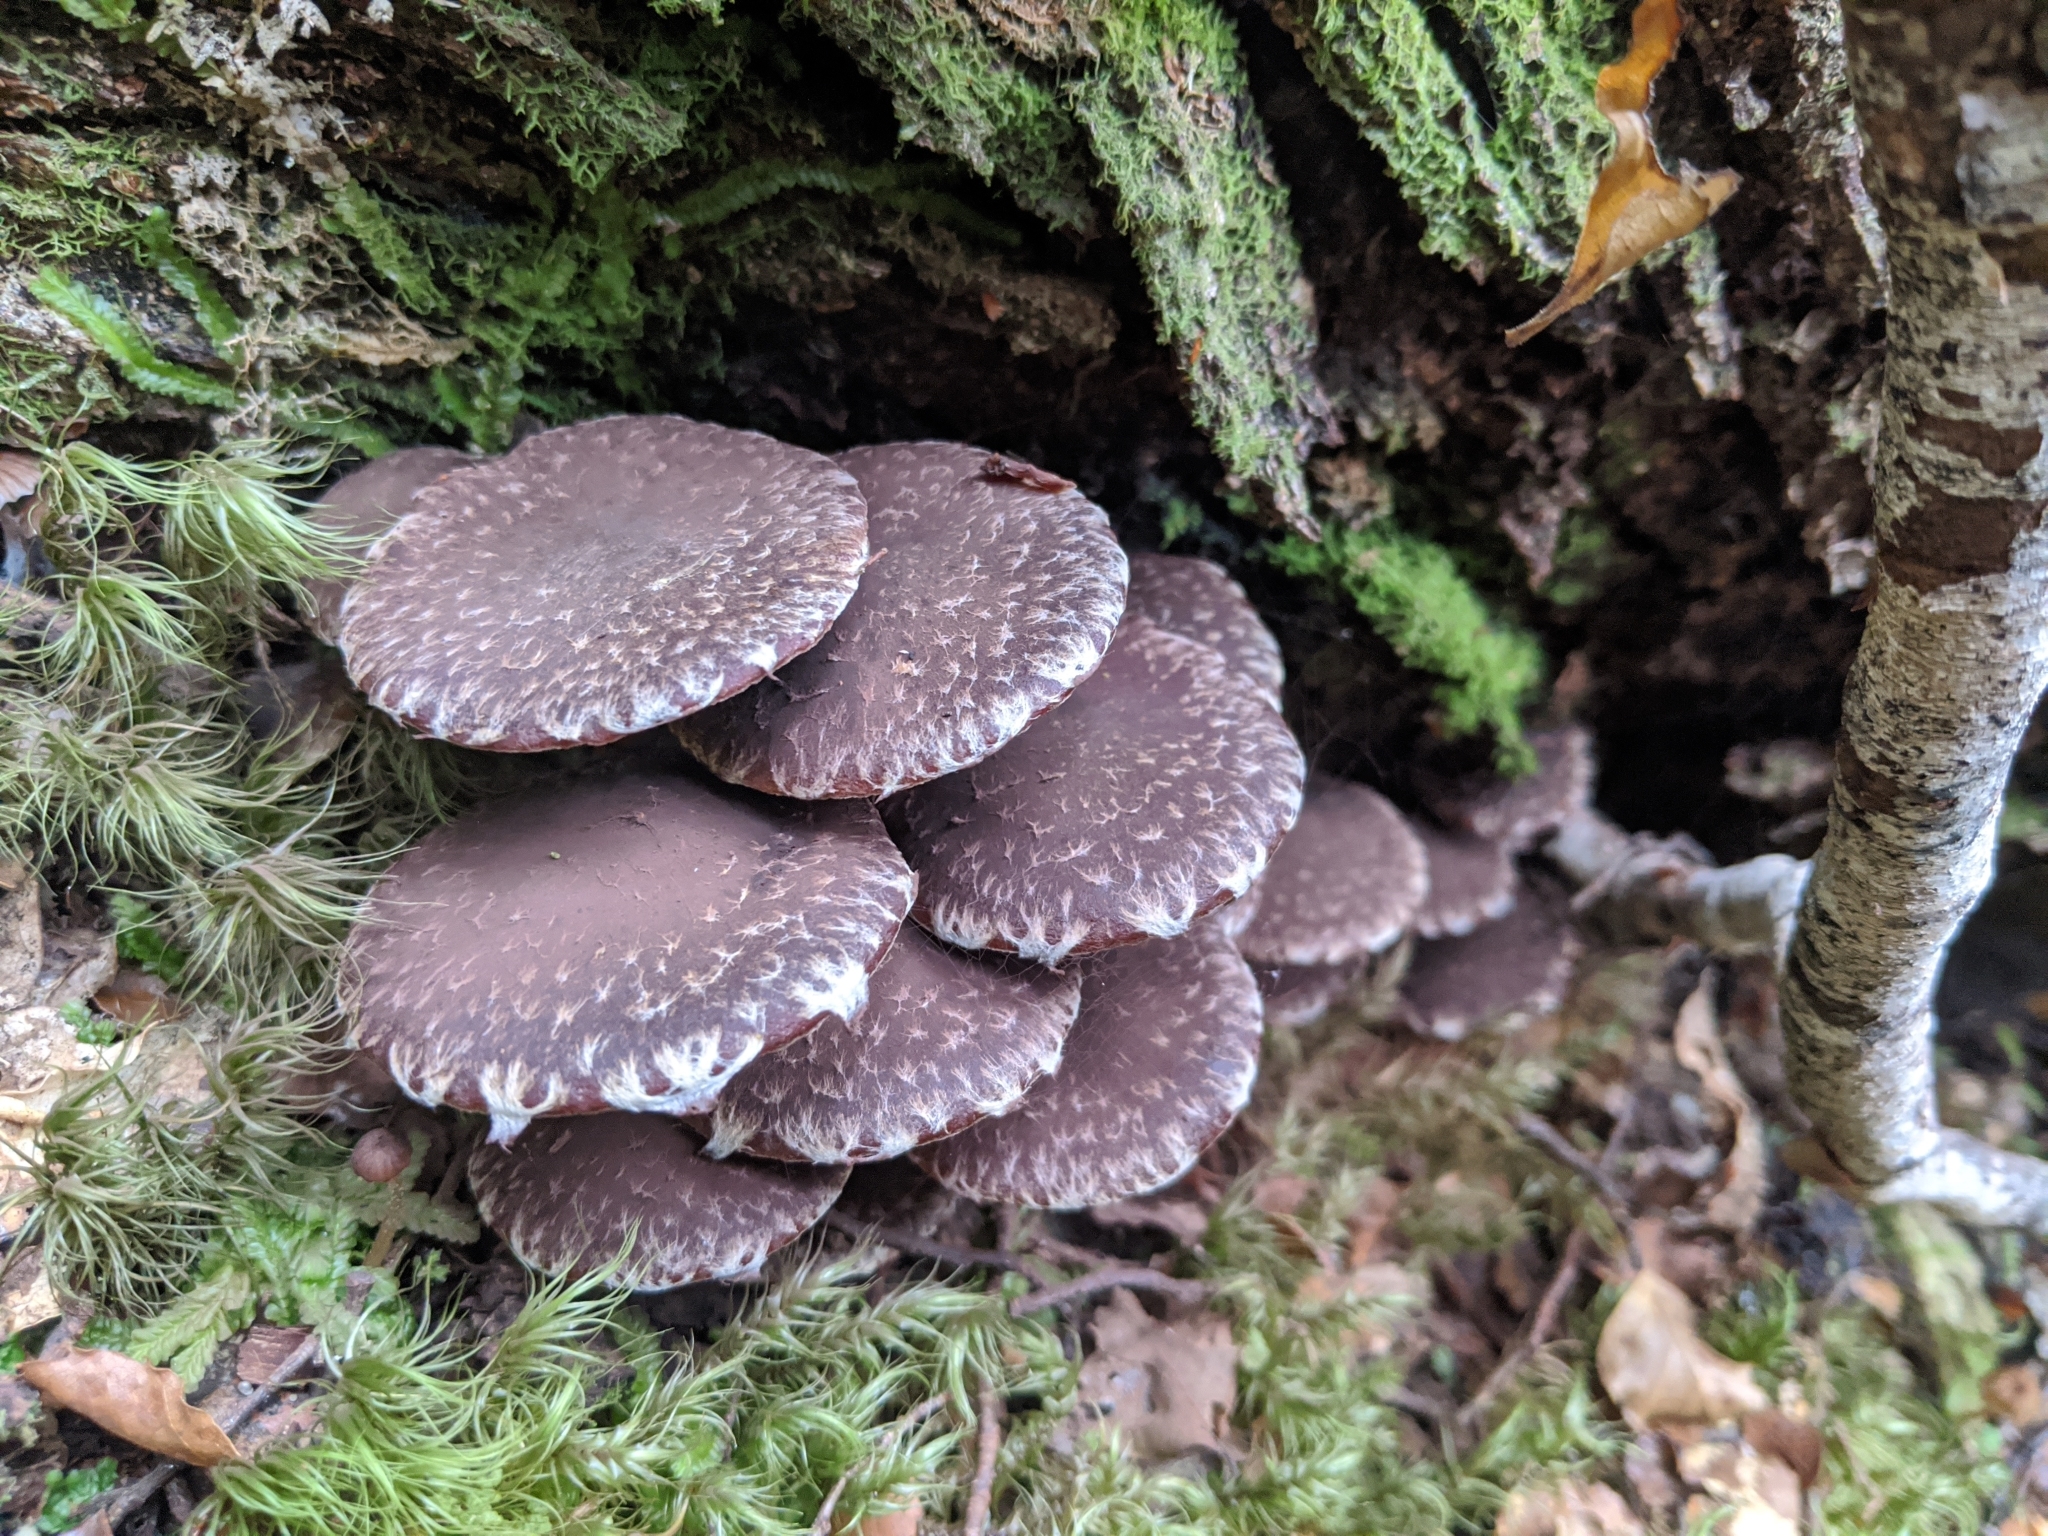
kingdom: Fungi
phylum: Basidiomycota
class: Agaricomycetes
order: Agaricales
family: Strophariaceae
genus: Hypholoma
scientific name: Hypholoma brunneum
